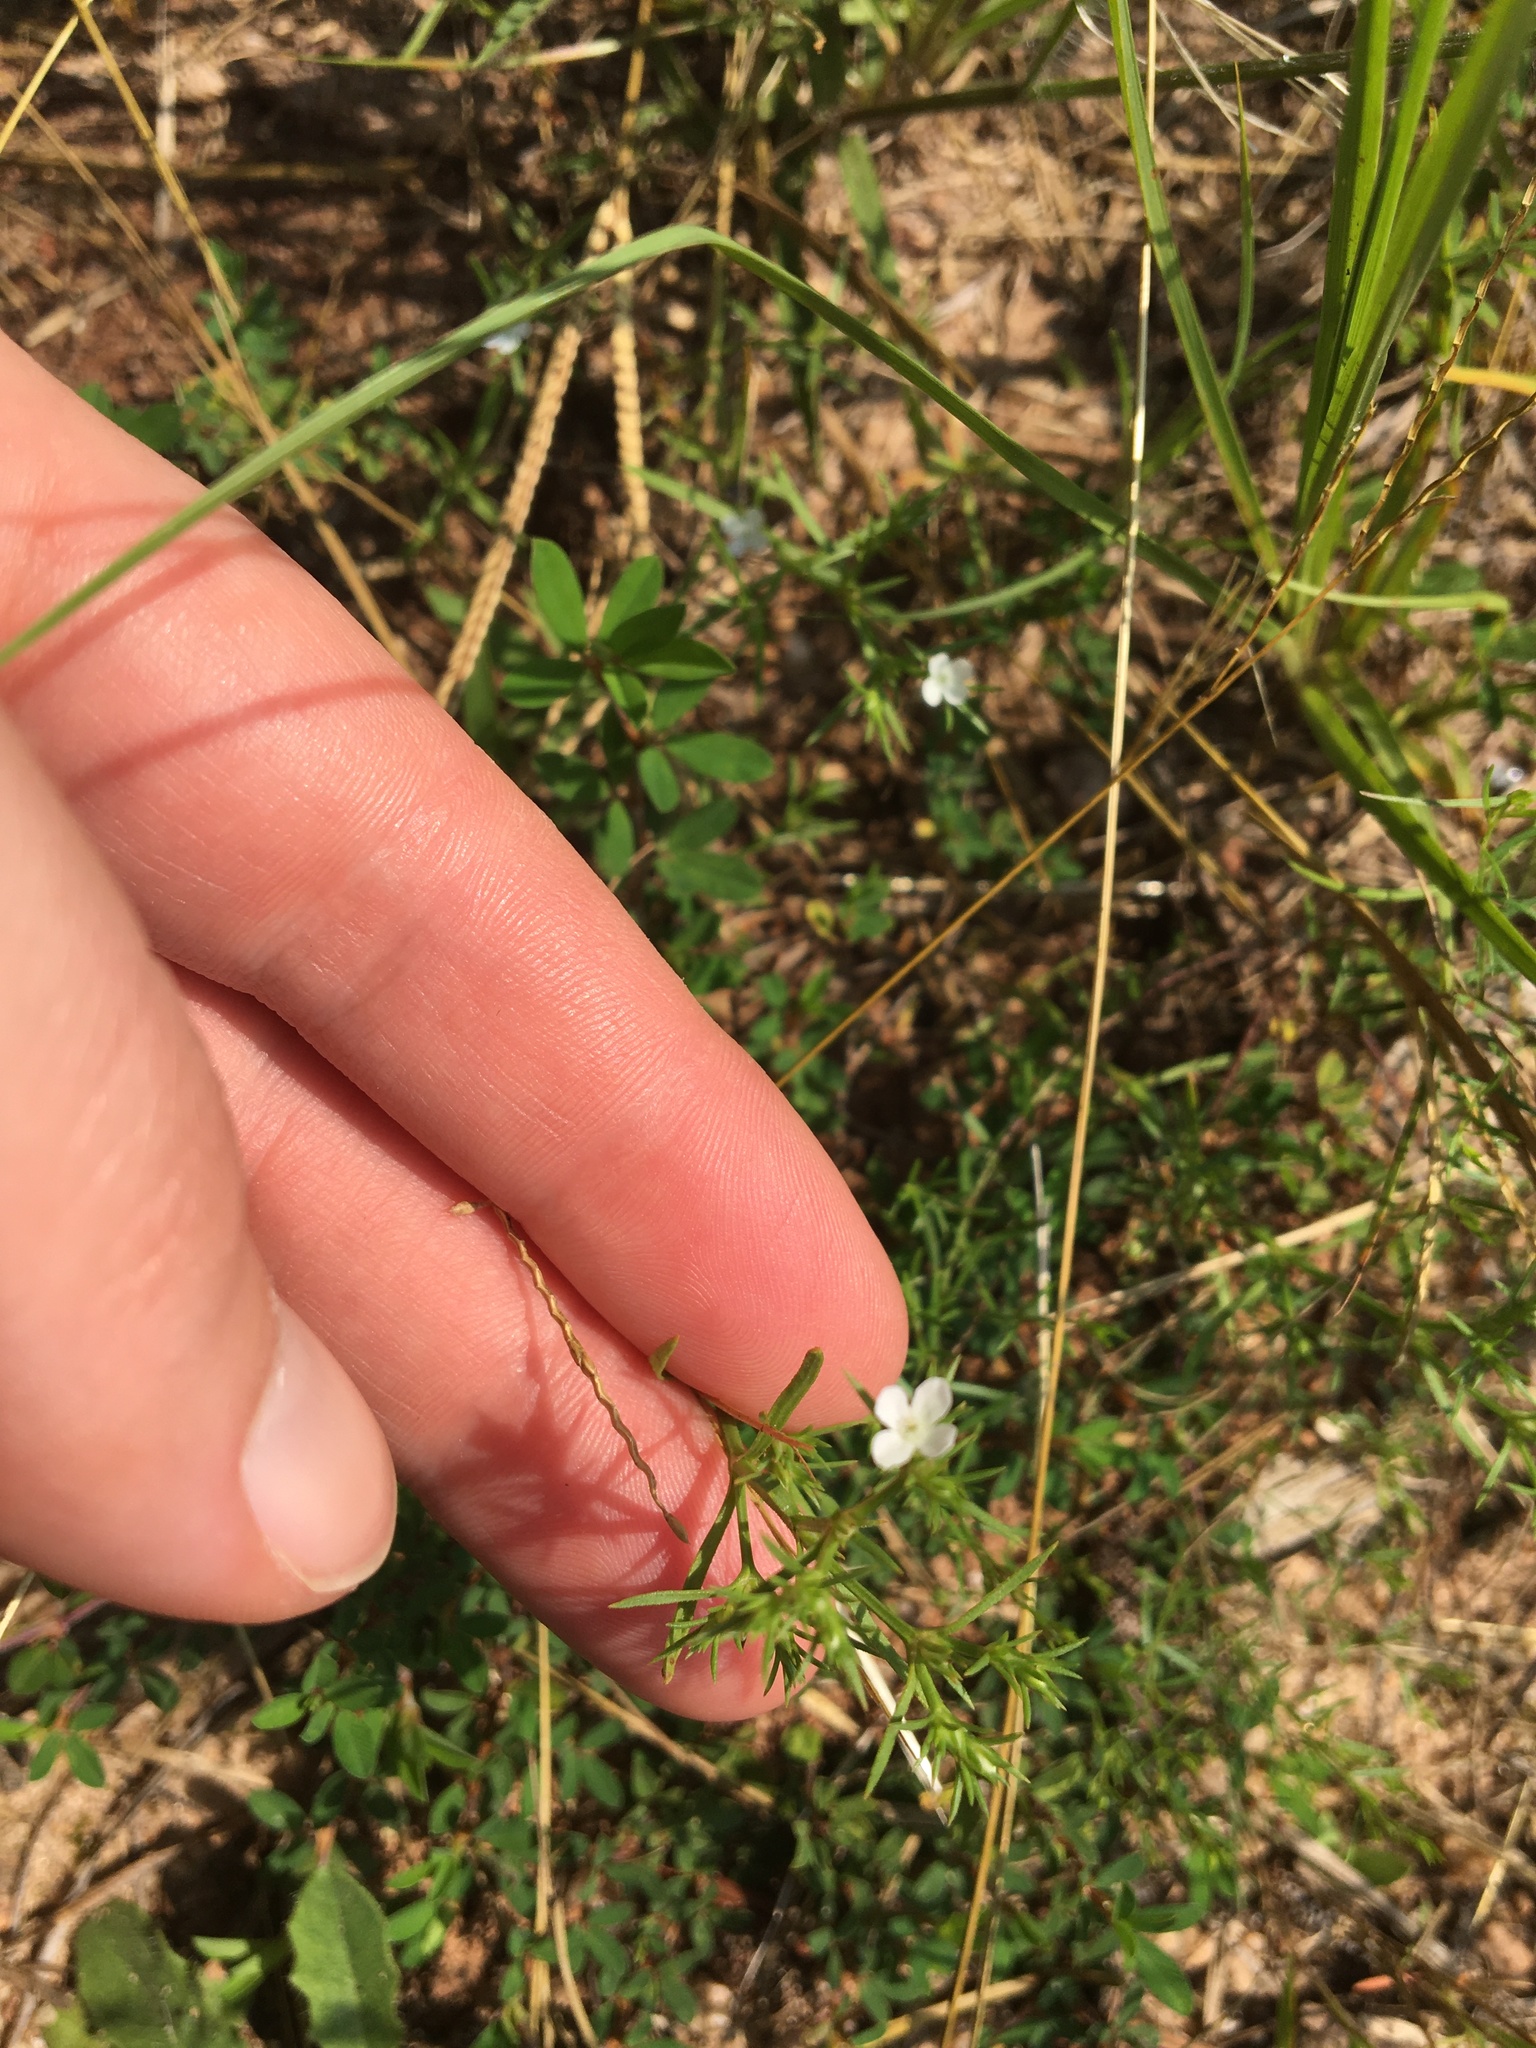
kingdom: Plantae
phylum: Tracheophyta
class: Magnoliopsida
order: Lamiales
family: Tetrachondraceae
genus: Polypremum
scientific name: Polypremum procumbens
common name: Juniper-leaf
